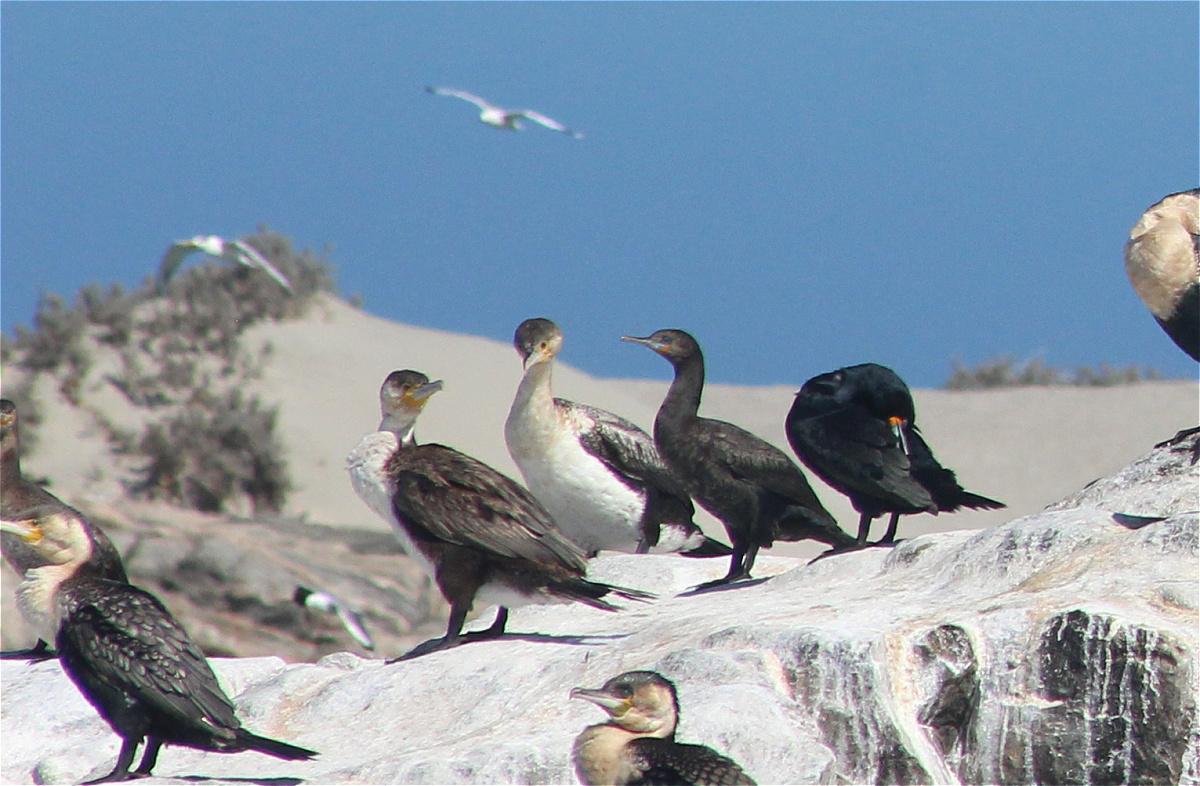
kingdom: Animalia
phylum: Chordata
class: Aves
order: Suliformes
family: Phalacrocoracidae
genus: Phalacrocorax
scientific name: Phalacrocorax capensis
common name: Cape cormorant
